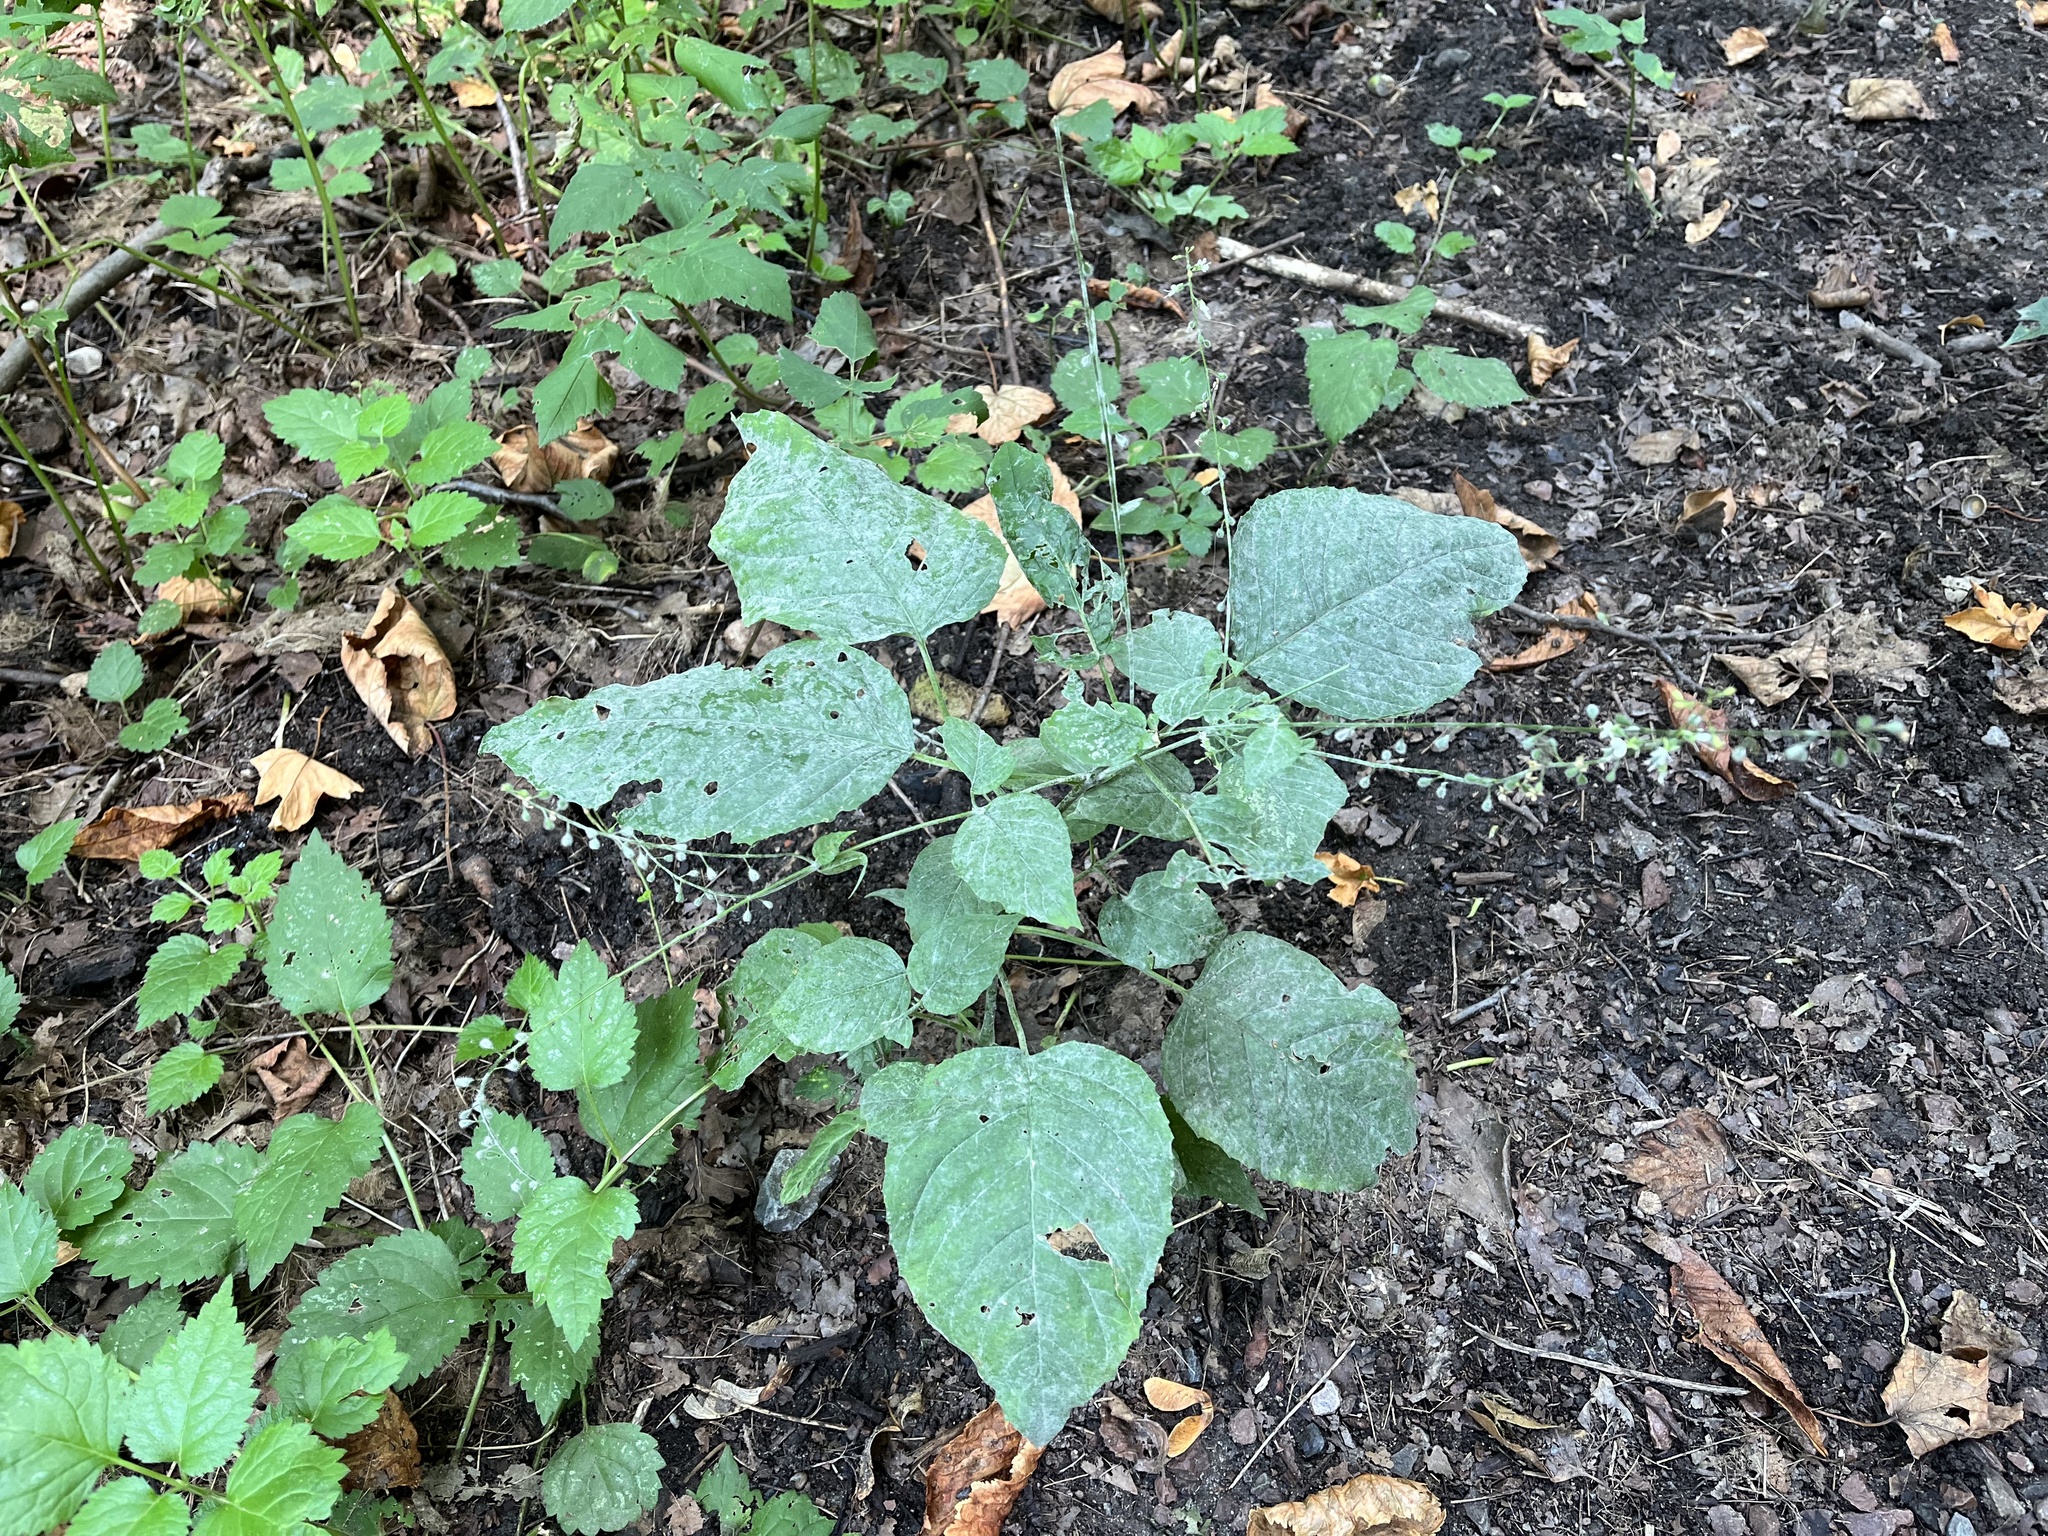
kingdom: Plantae
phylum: Tracheophyta
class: Magnoliopsida
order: Myrtales
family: Onagraceae
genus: Circaea
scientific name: Circaea lutetiana
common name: Enchanter's-nightshade
